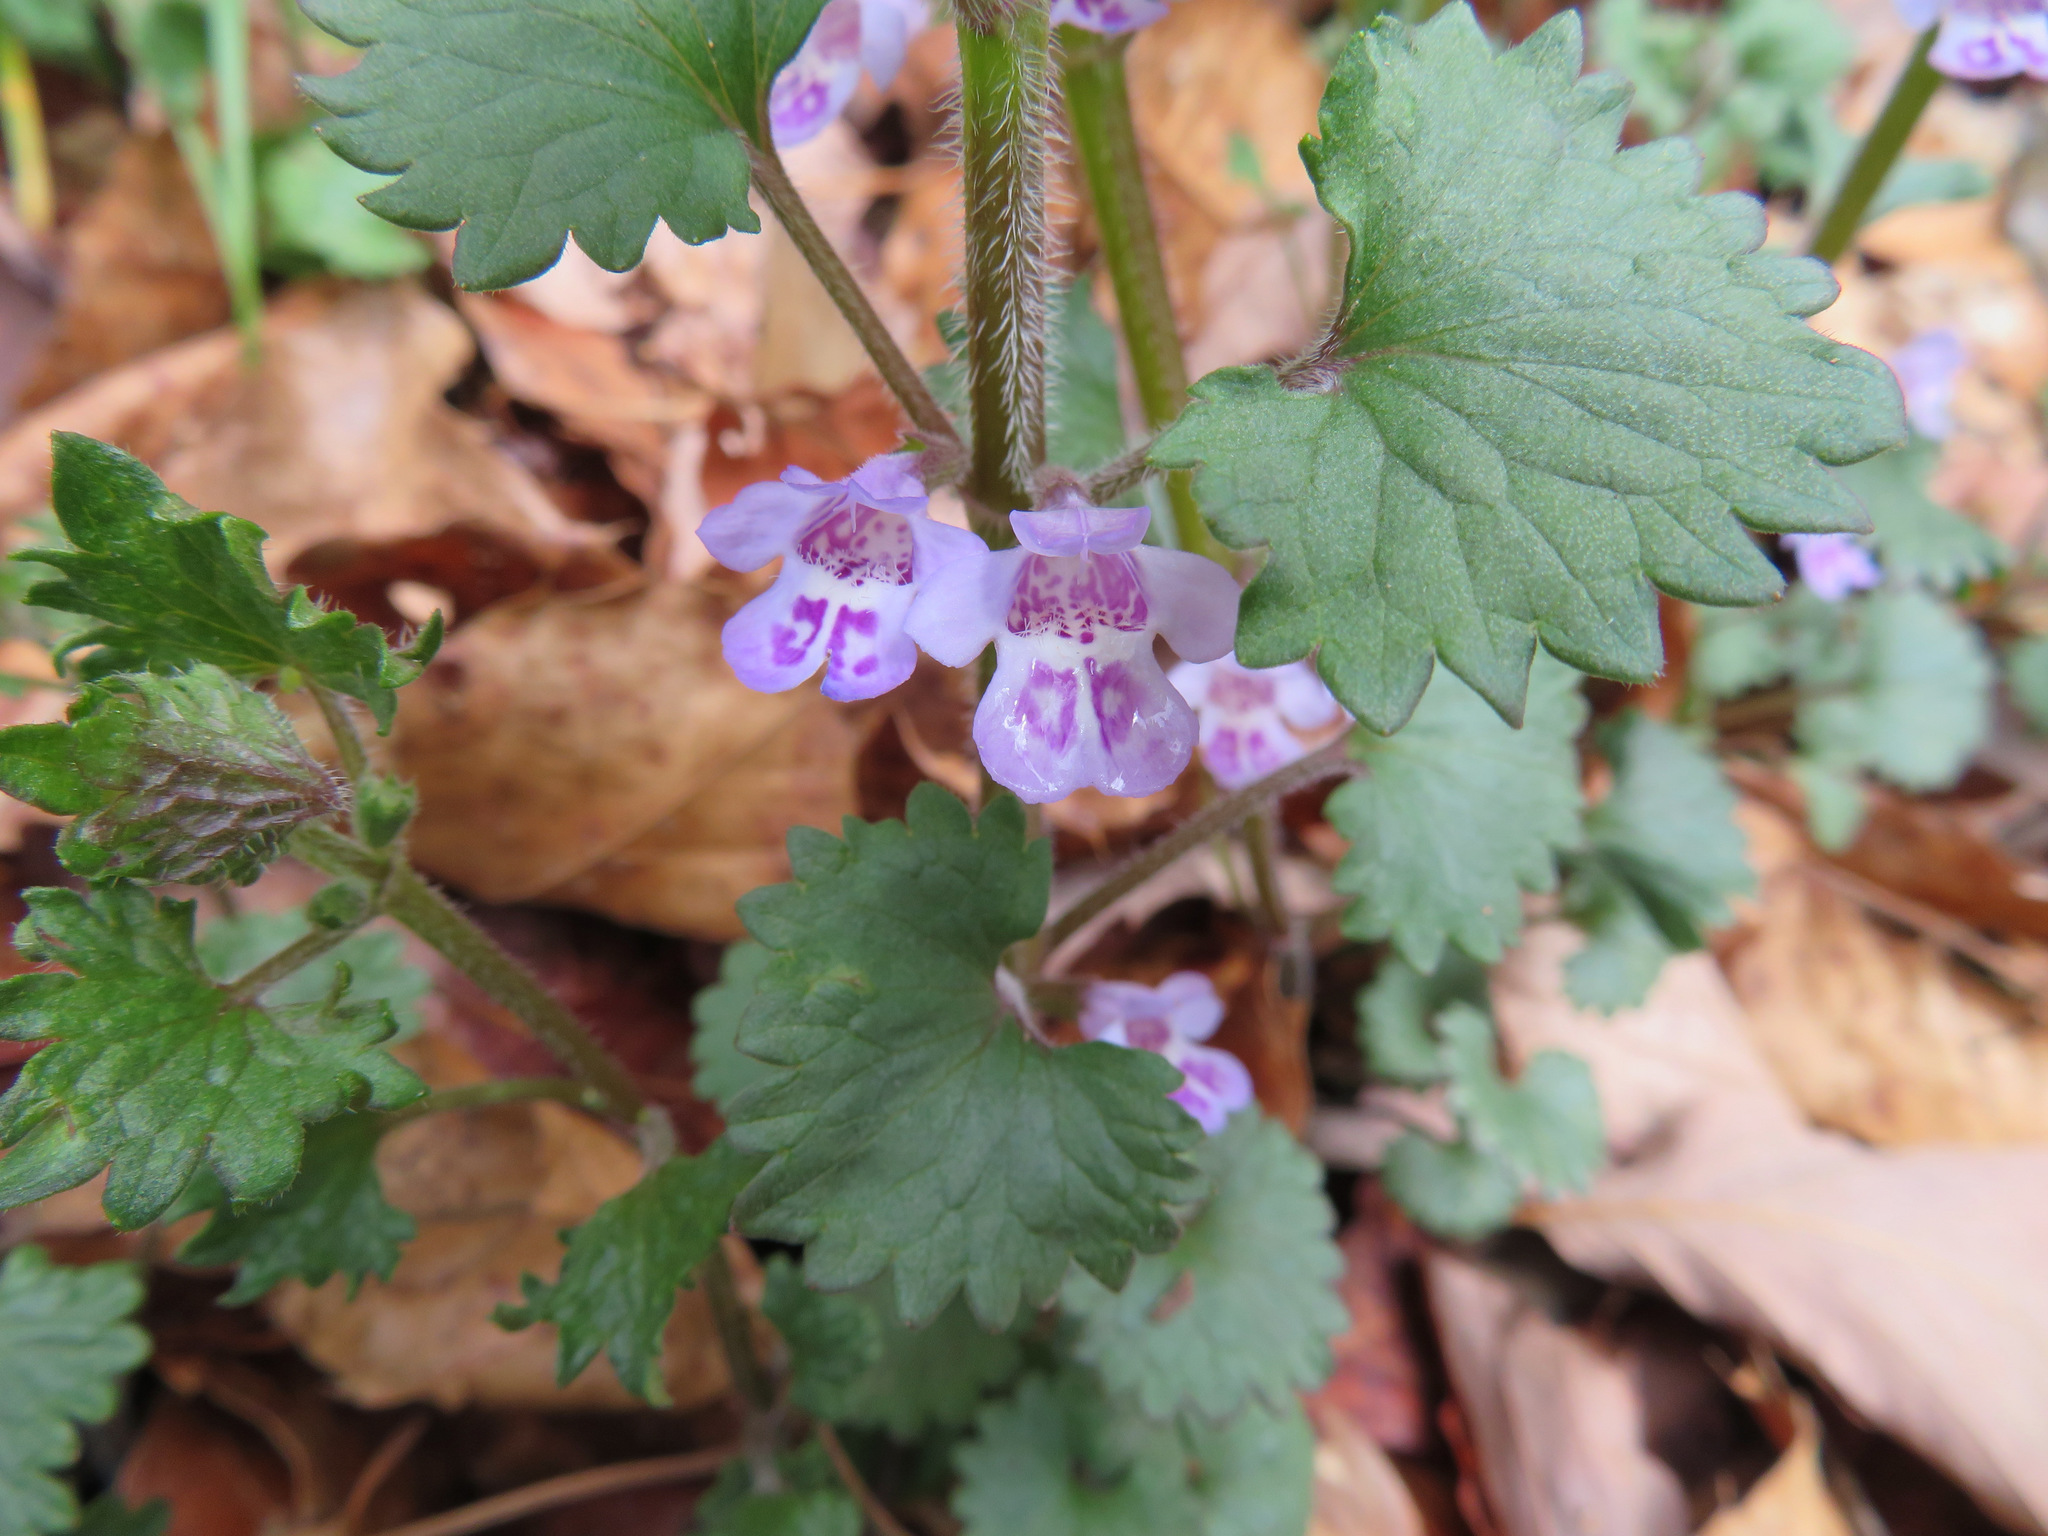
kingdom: Plantae
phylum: Tracheophyta
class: Magnoliopsida
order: Lamiales
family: Lamiaceae
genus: Glechoma
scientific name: Glechoma grandis
